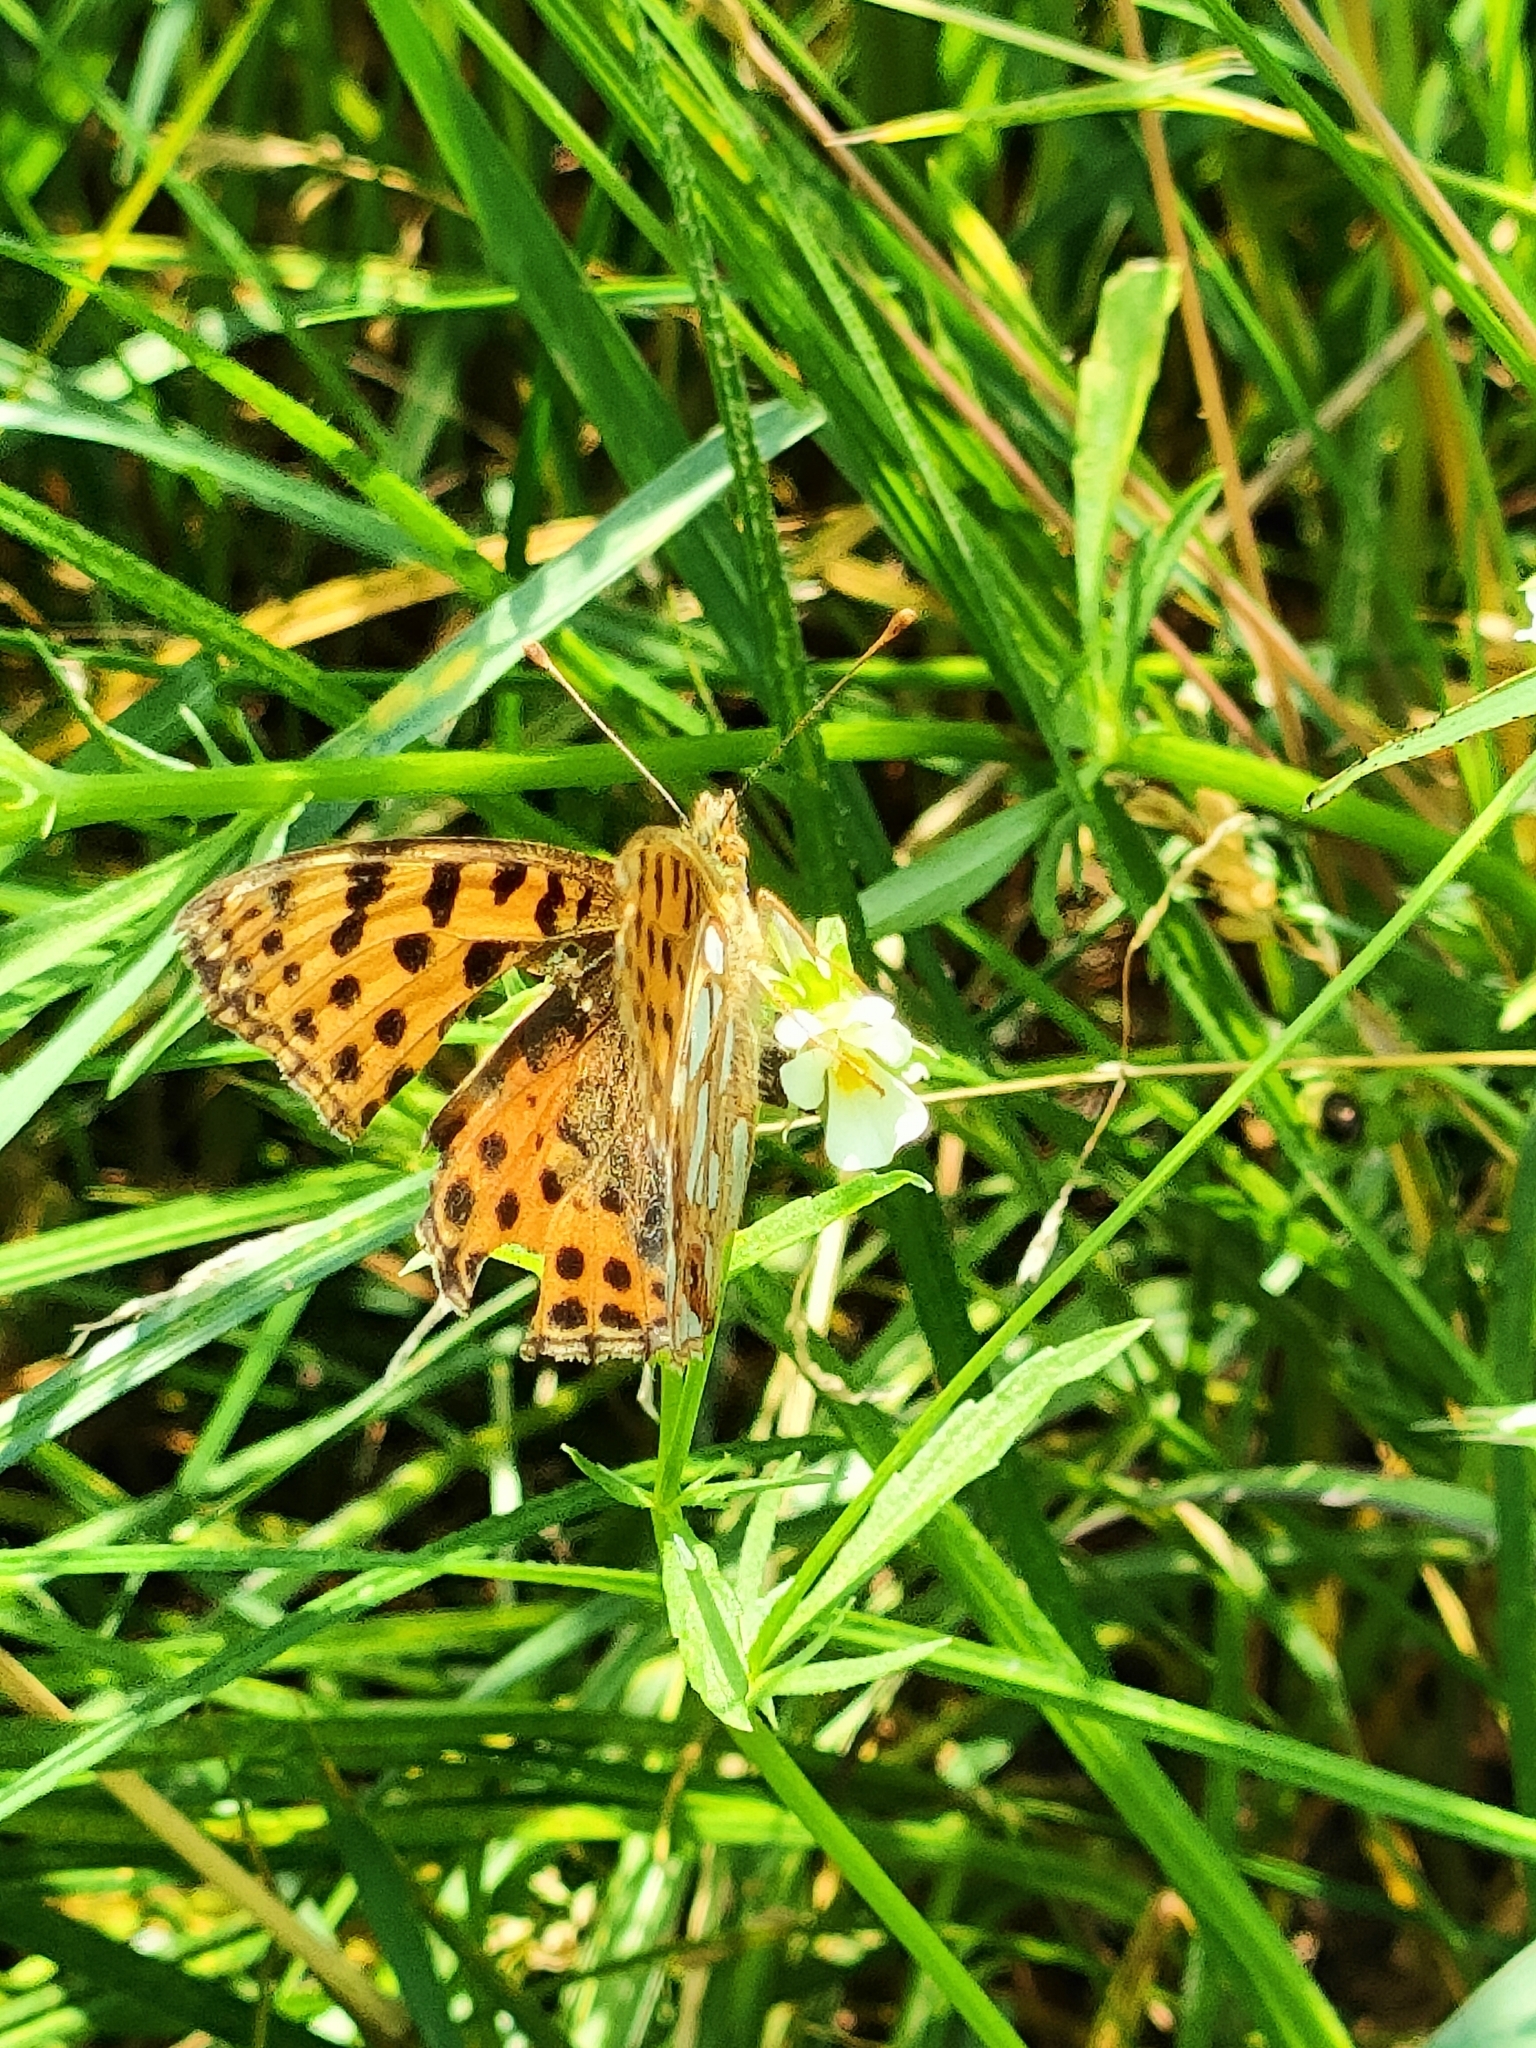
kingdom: Animalia
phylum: Arthropoda
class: Insecta
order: Lepidoptera
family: Nymphalidae
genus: Issoria
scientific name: Issoria lathonia
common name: Queen of spain fritillary
